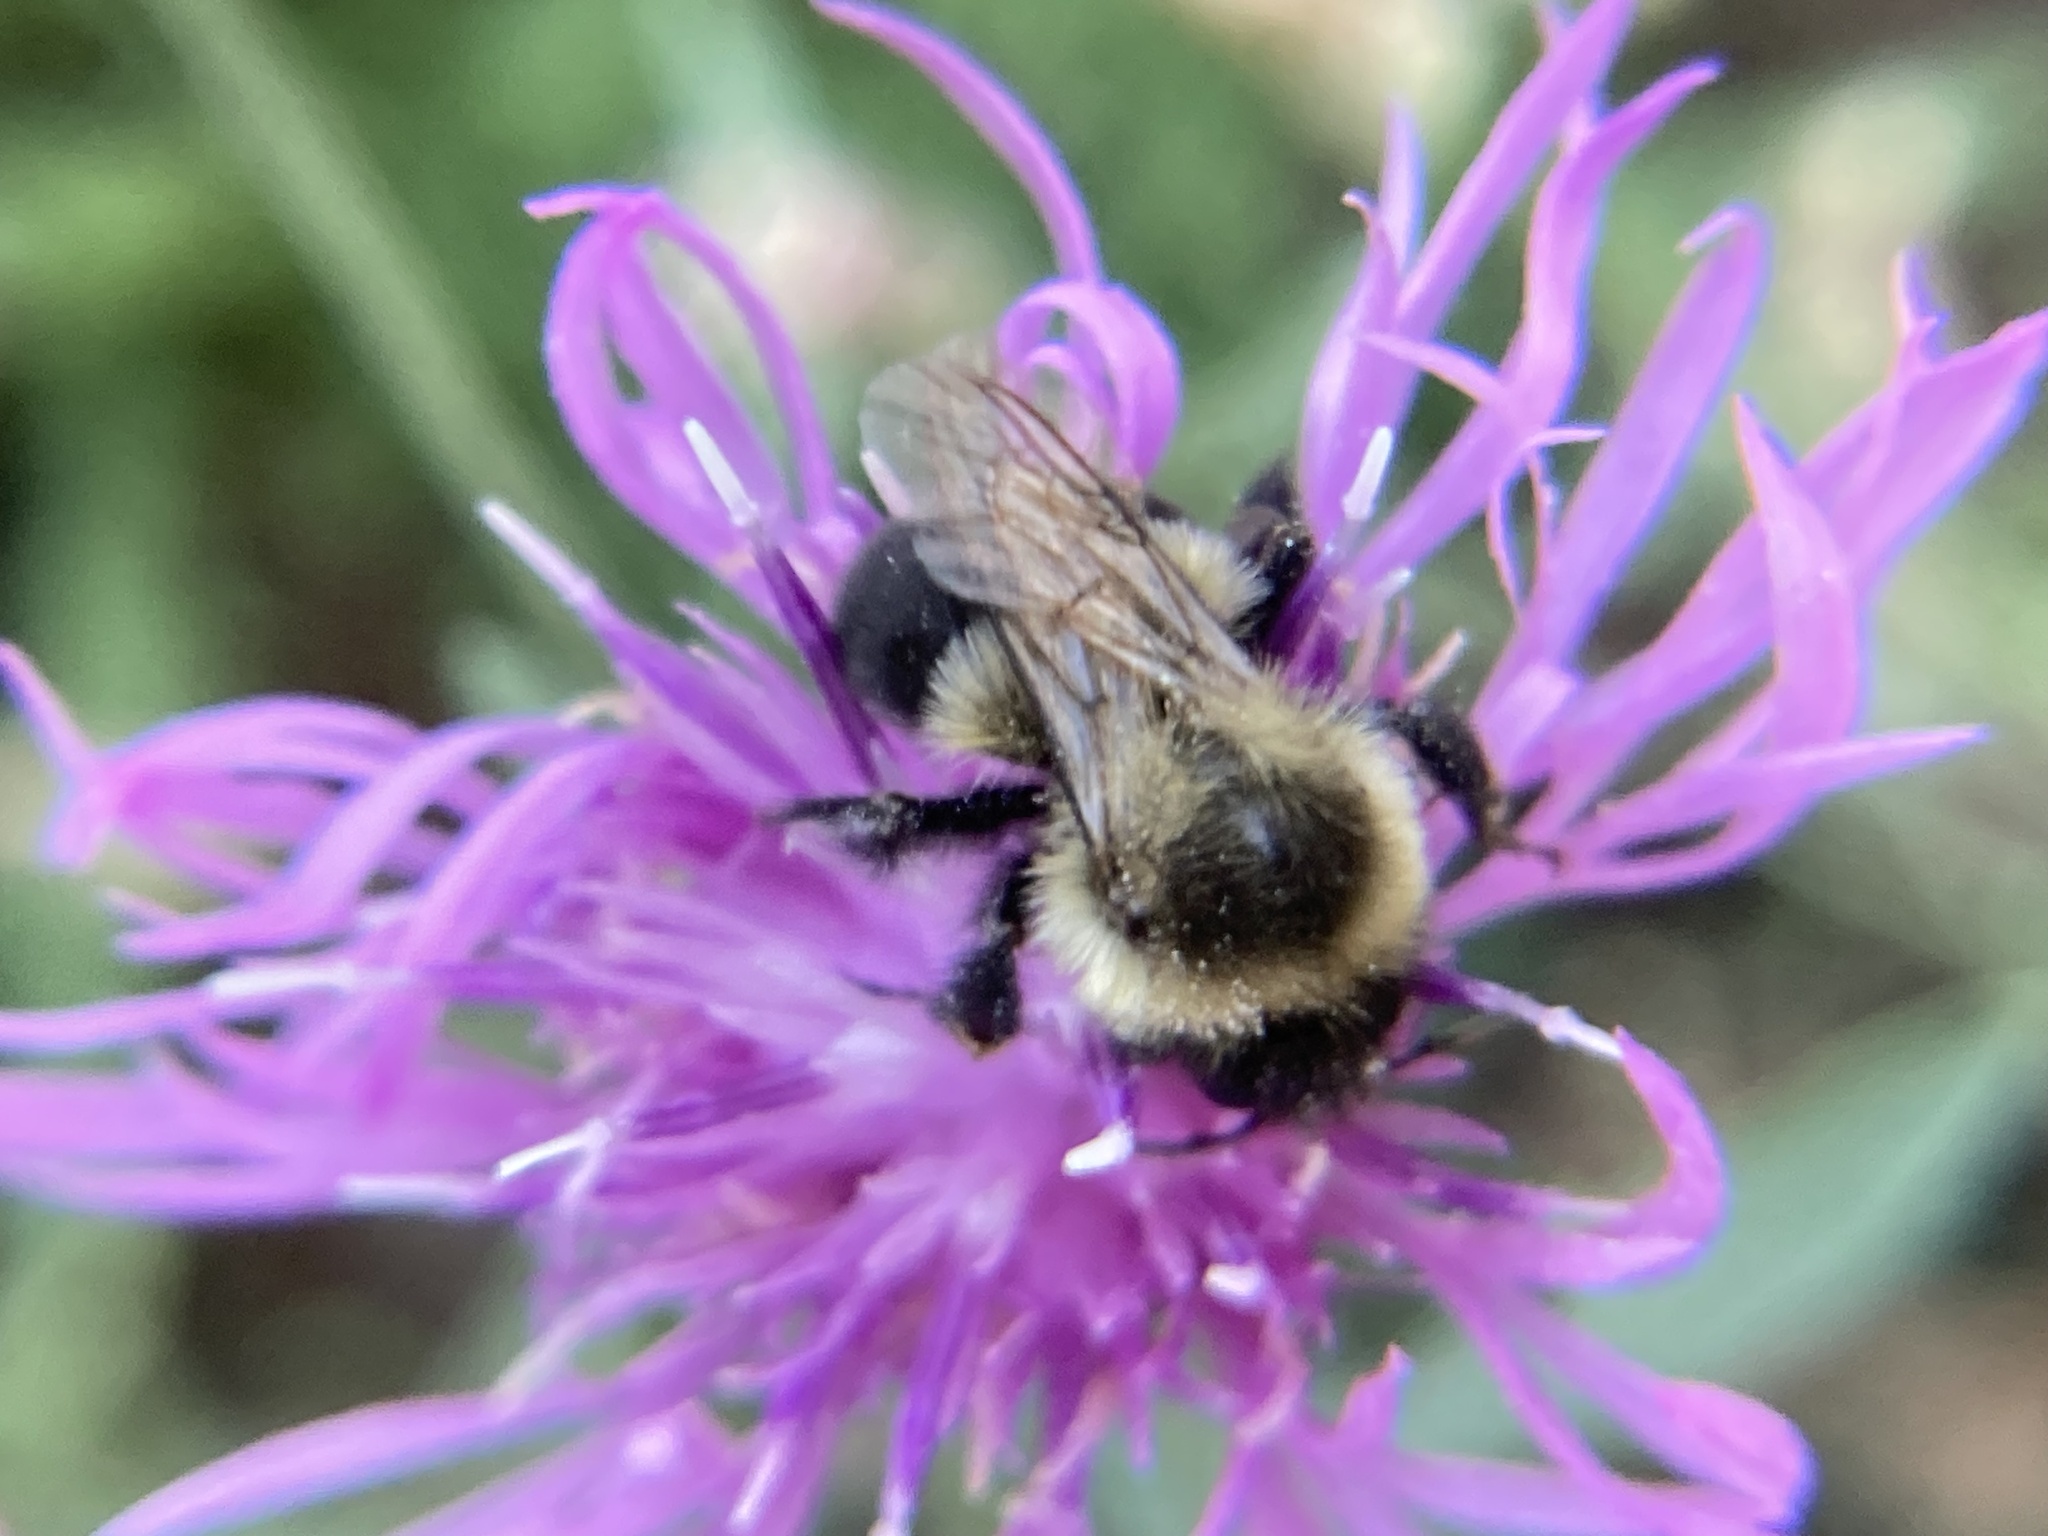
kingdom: Animalia
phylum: Arthropoda
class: Insecta
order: Hymenoptera
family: Apidae
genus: Bombus
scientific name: Bombus impatiens
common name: Common eastern bumble bee
